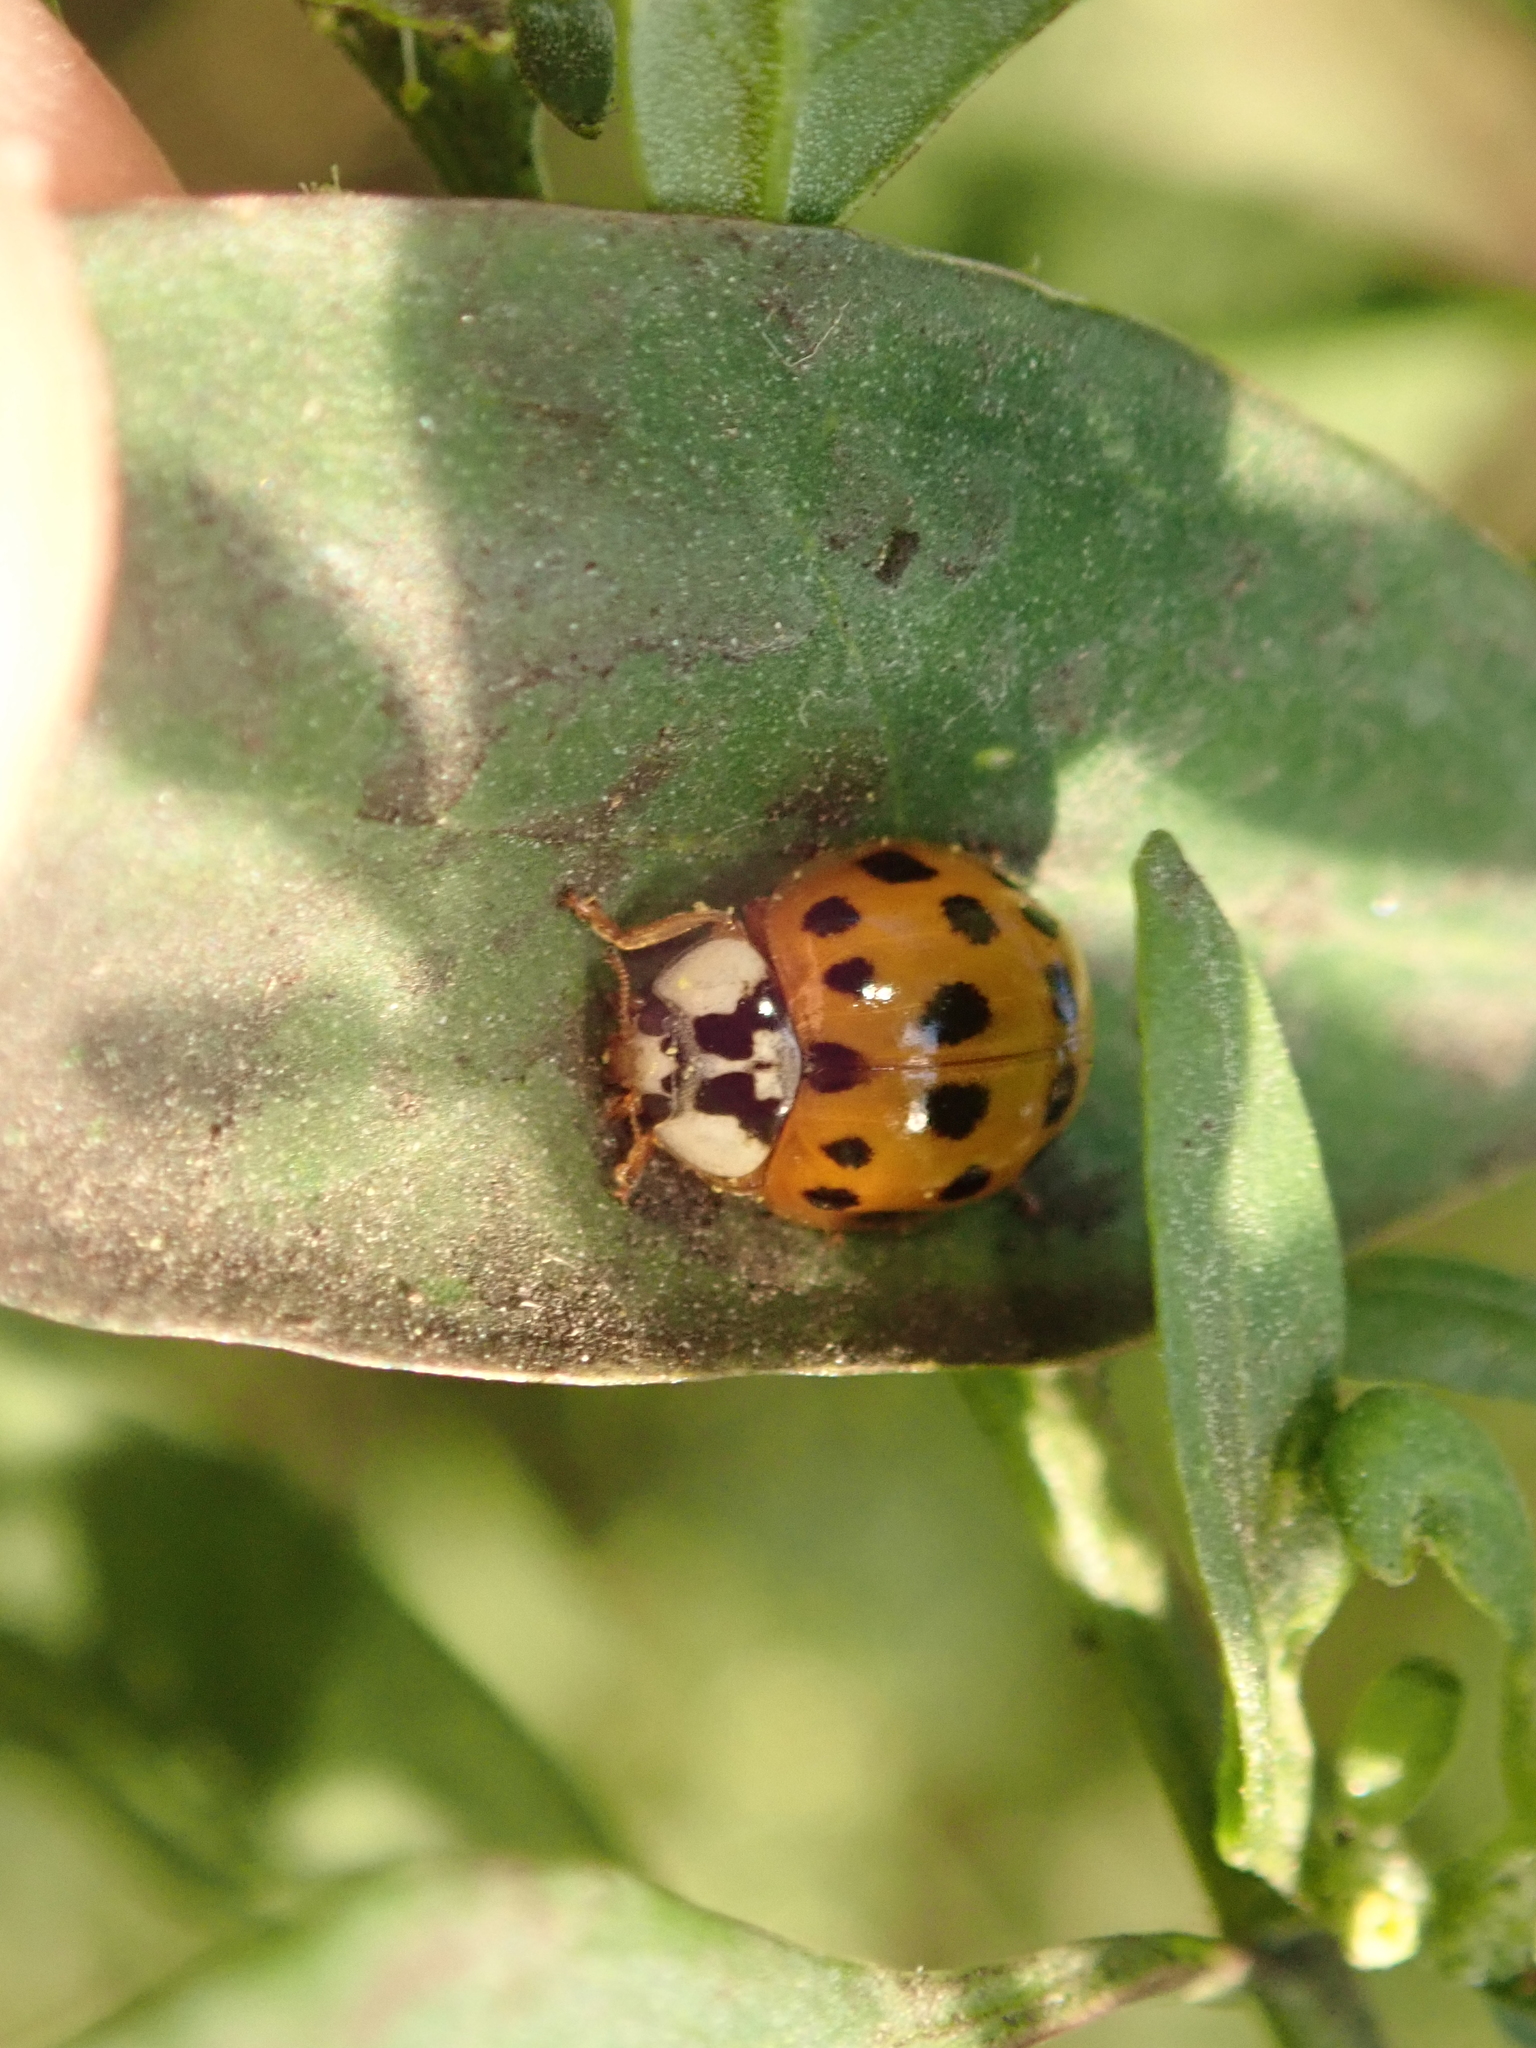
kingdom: Animalia
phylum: Arthropoda
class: Insecta
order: Coleoptera
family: Coccinellidae
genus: Harmonia
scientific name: Harmonia axyridis
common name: Harlequin ladybird
